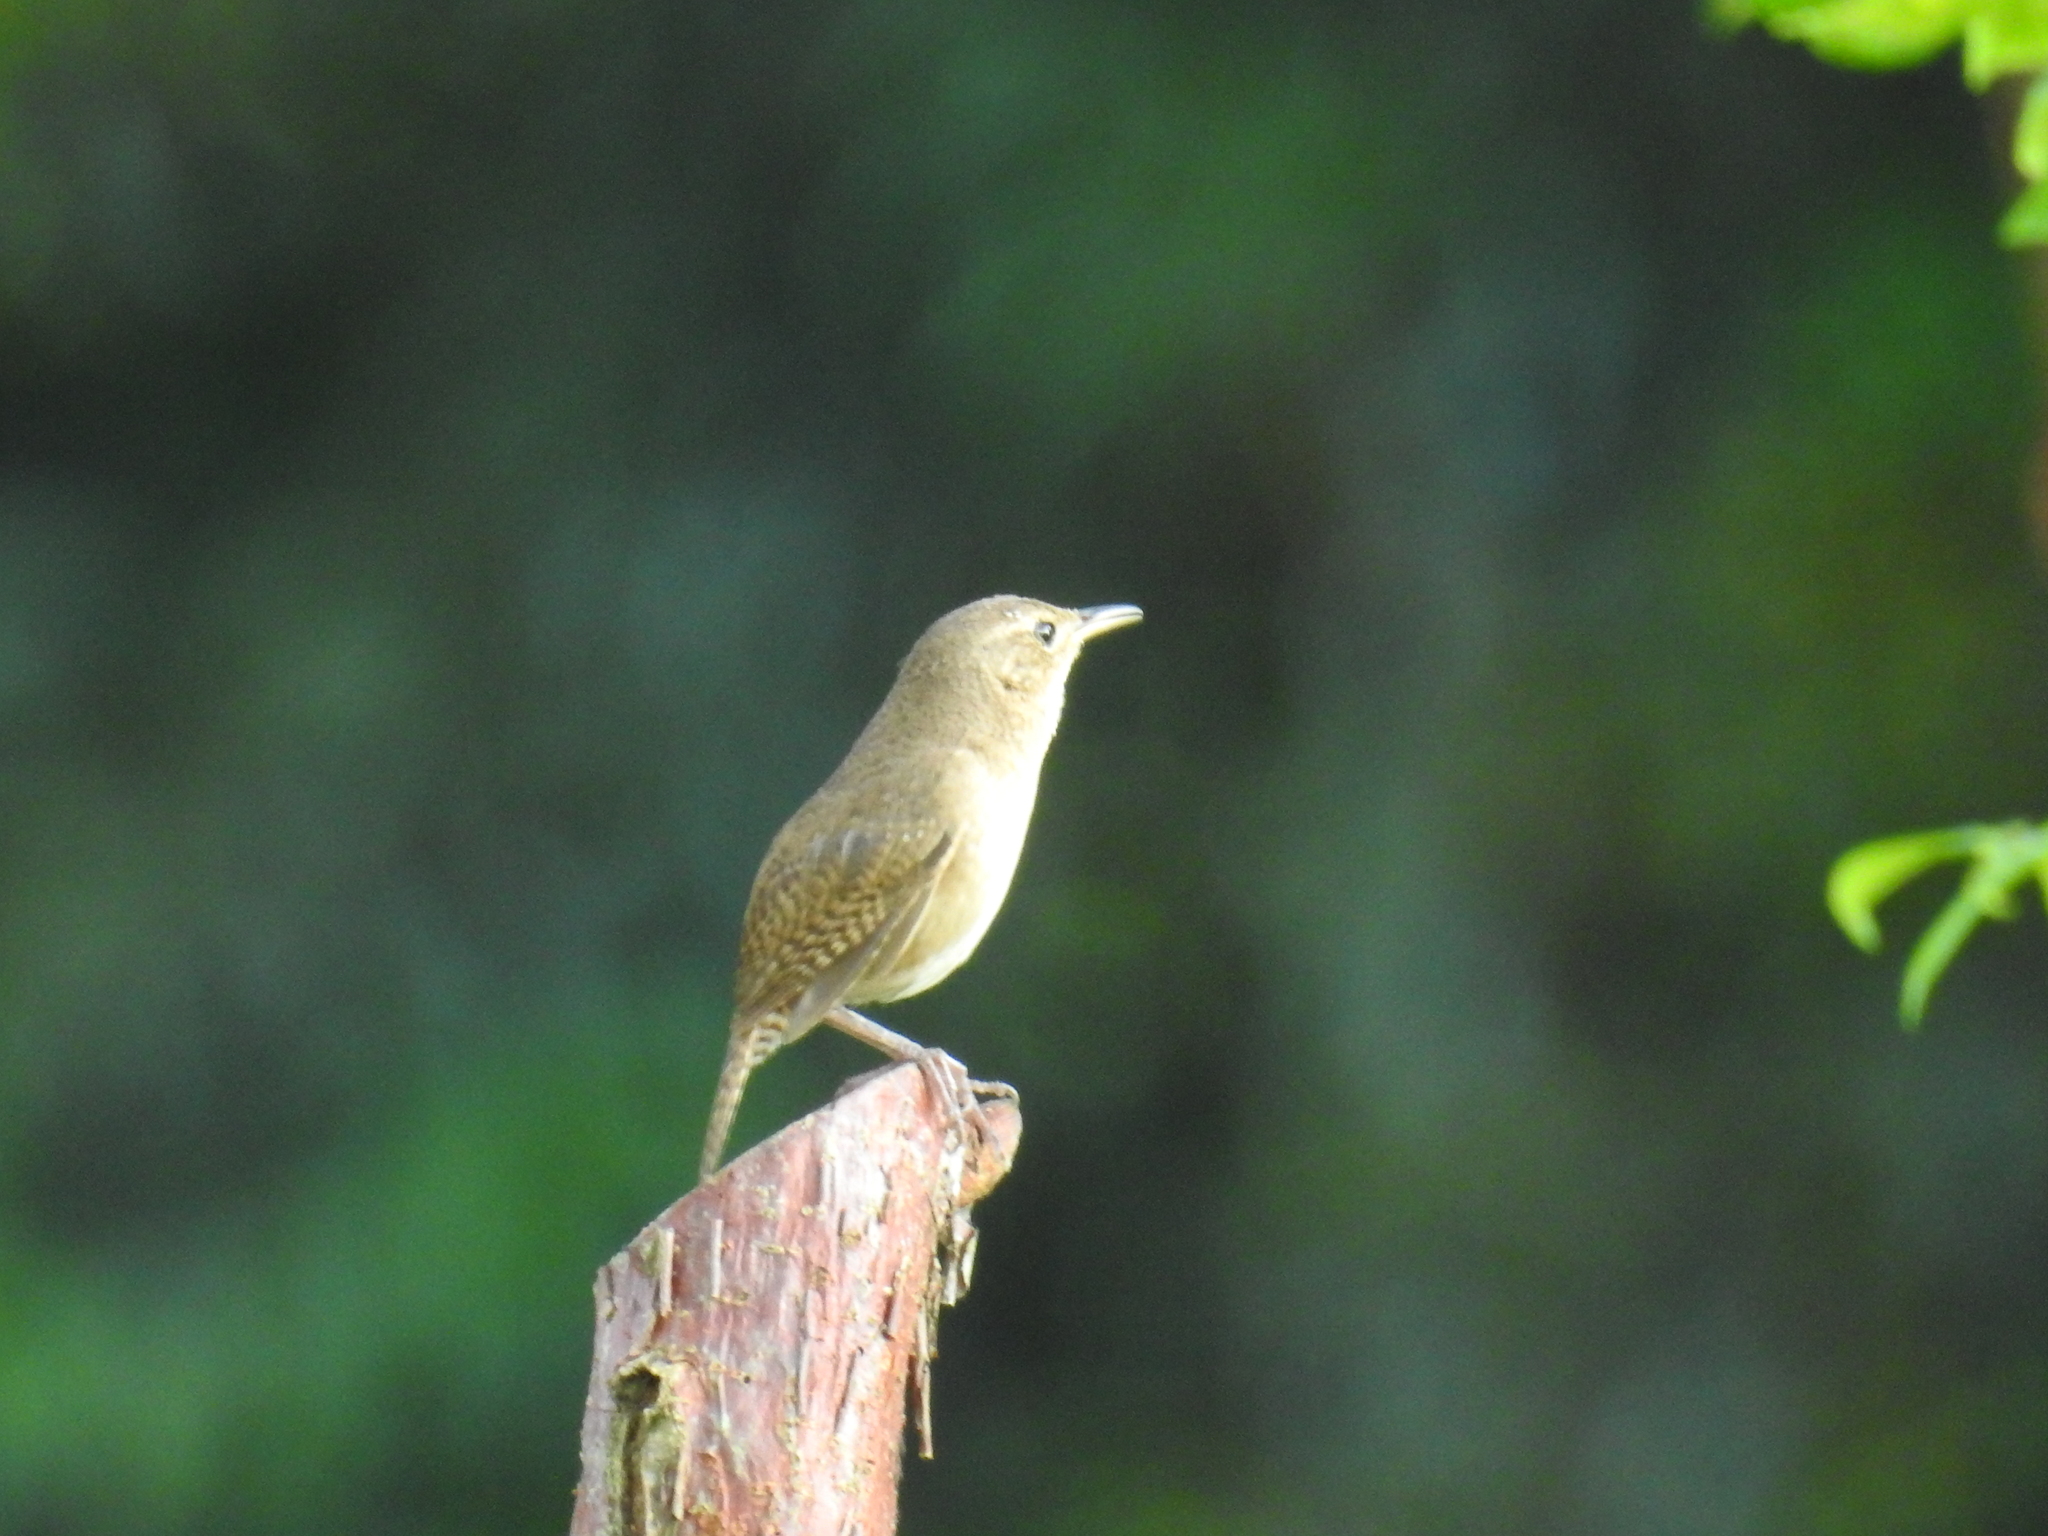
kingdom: Animalia
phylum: Chordata
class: Aves
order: Passeriformes
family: Troglodytidae
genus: Troglodytes
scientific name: Troglodytes aedon
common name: House wren
